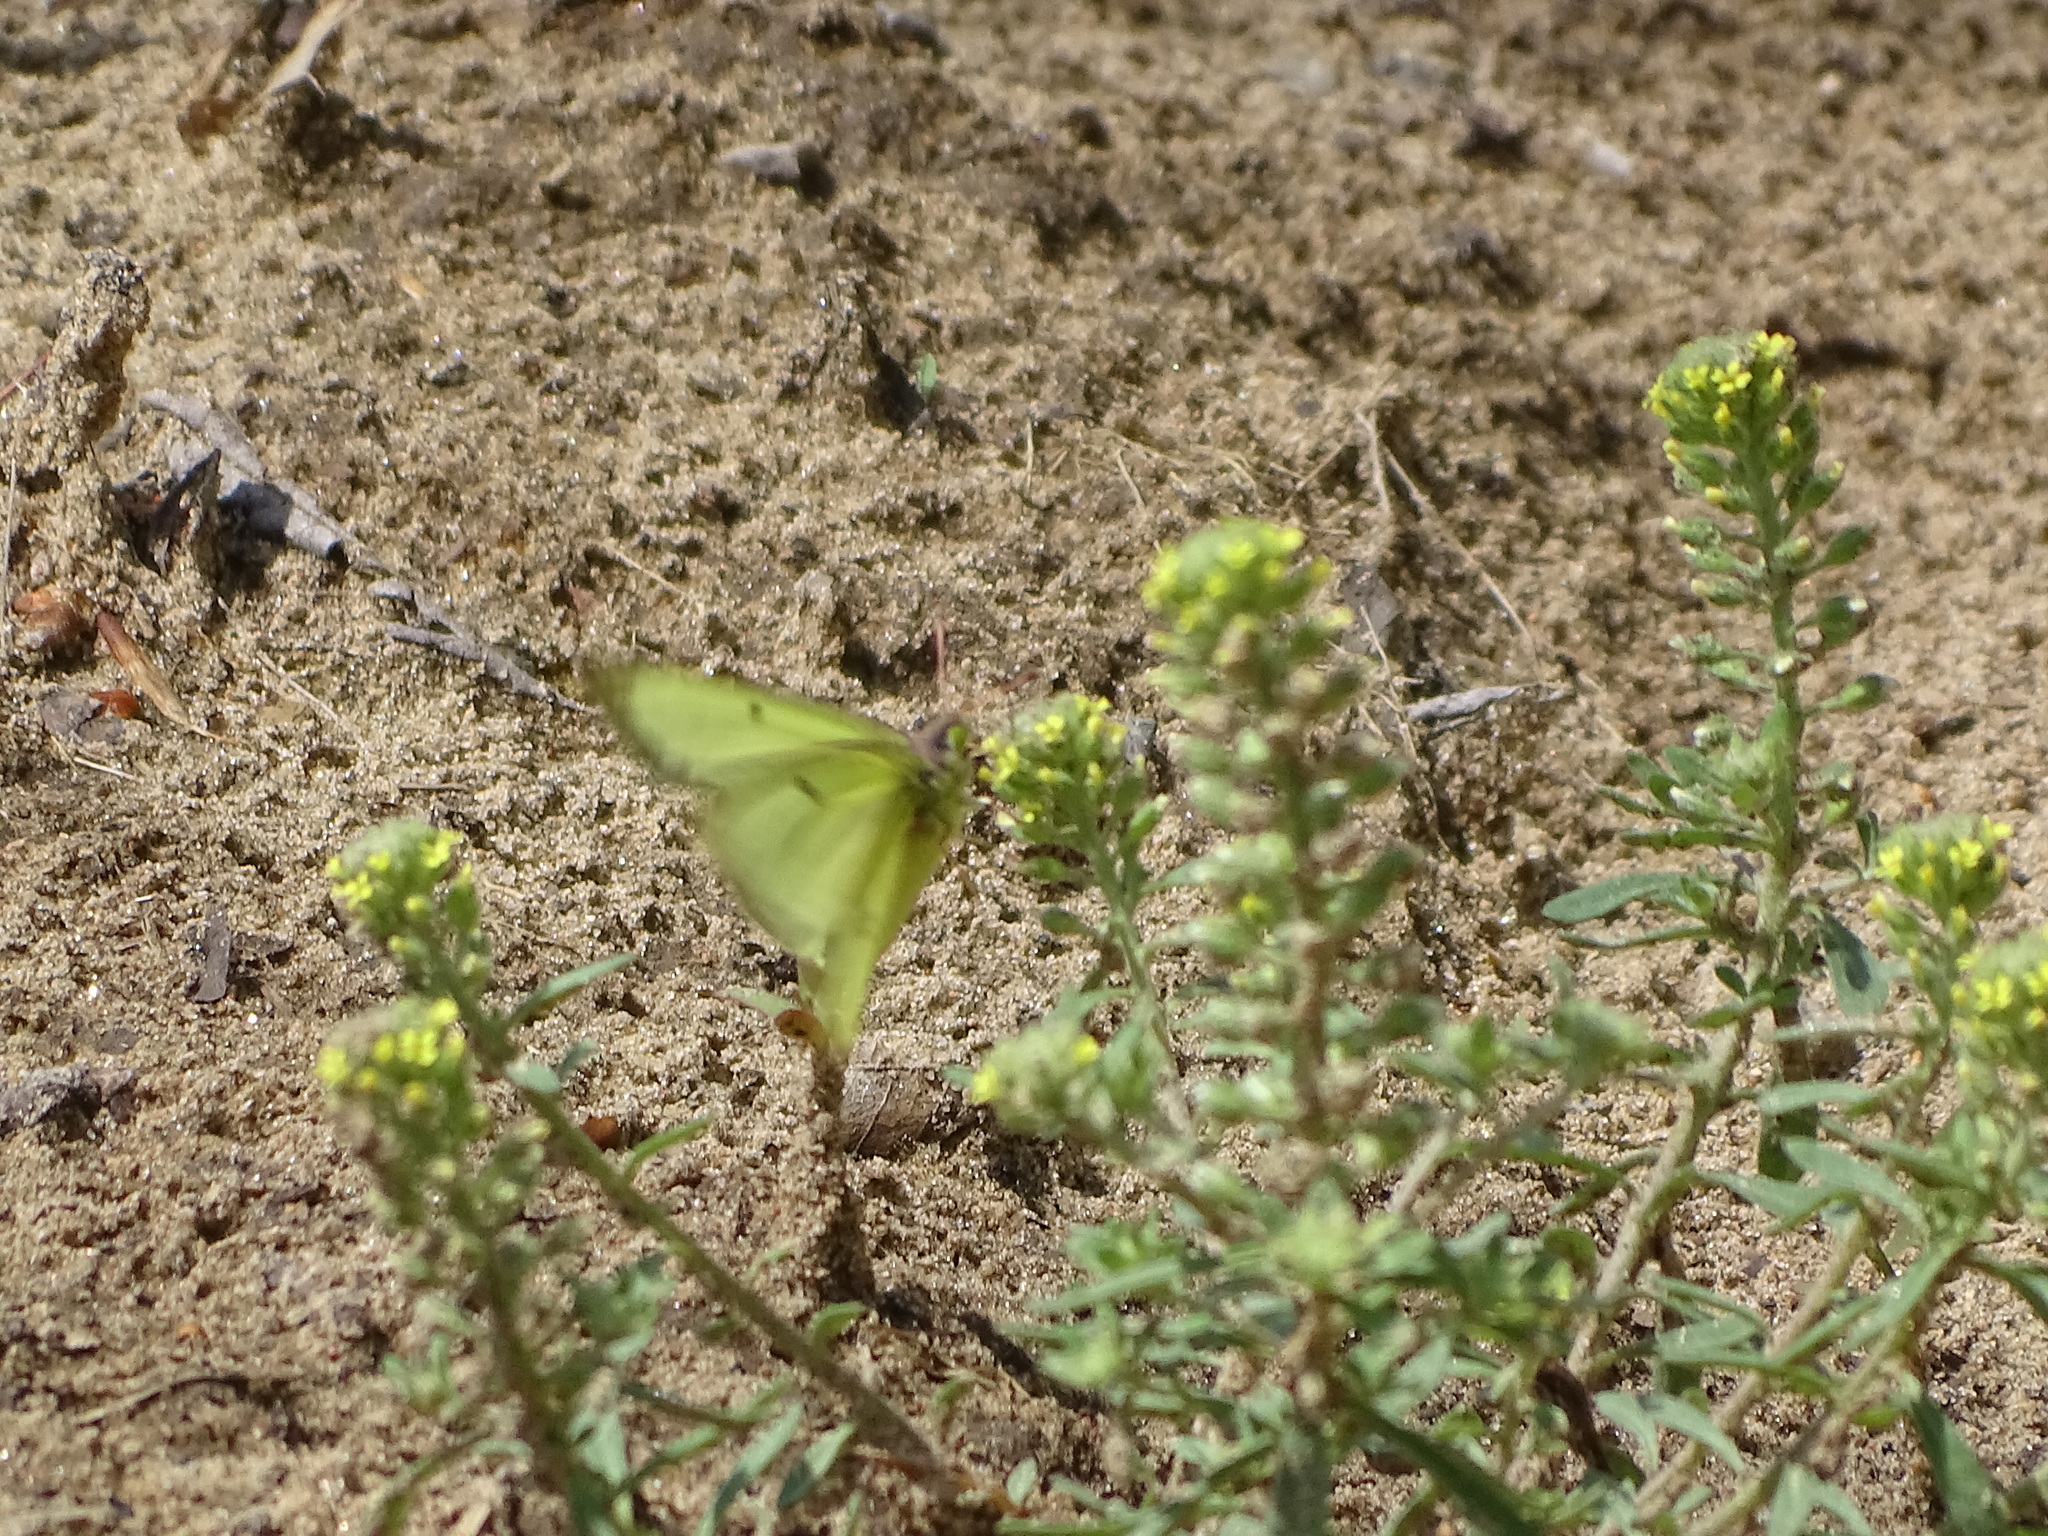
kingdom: Animalia
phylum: Arthropoda
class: Insecta
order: Lepidoptera
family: Pieridae
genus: Colias
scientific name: Colias philodice
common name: Clouded sulphur
